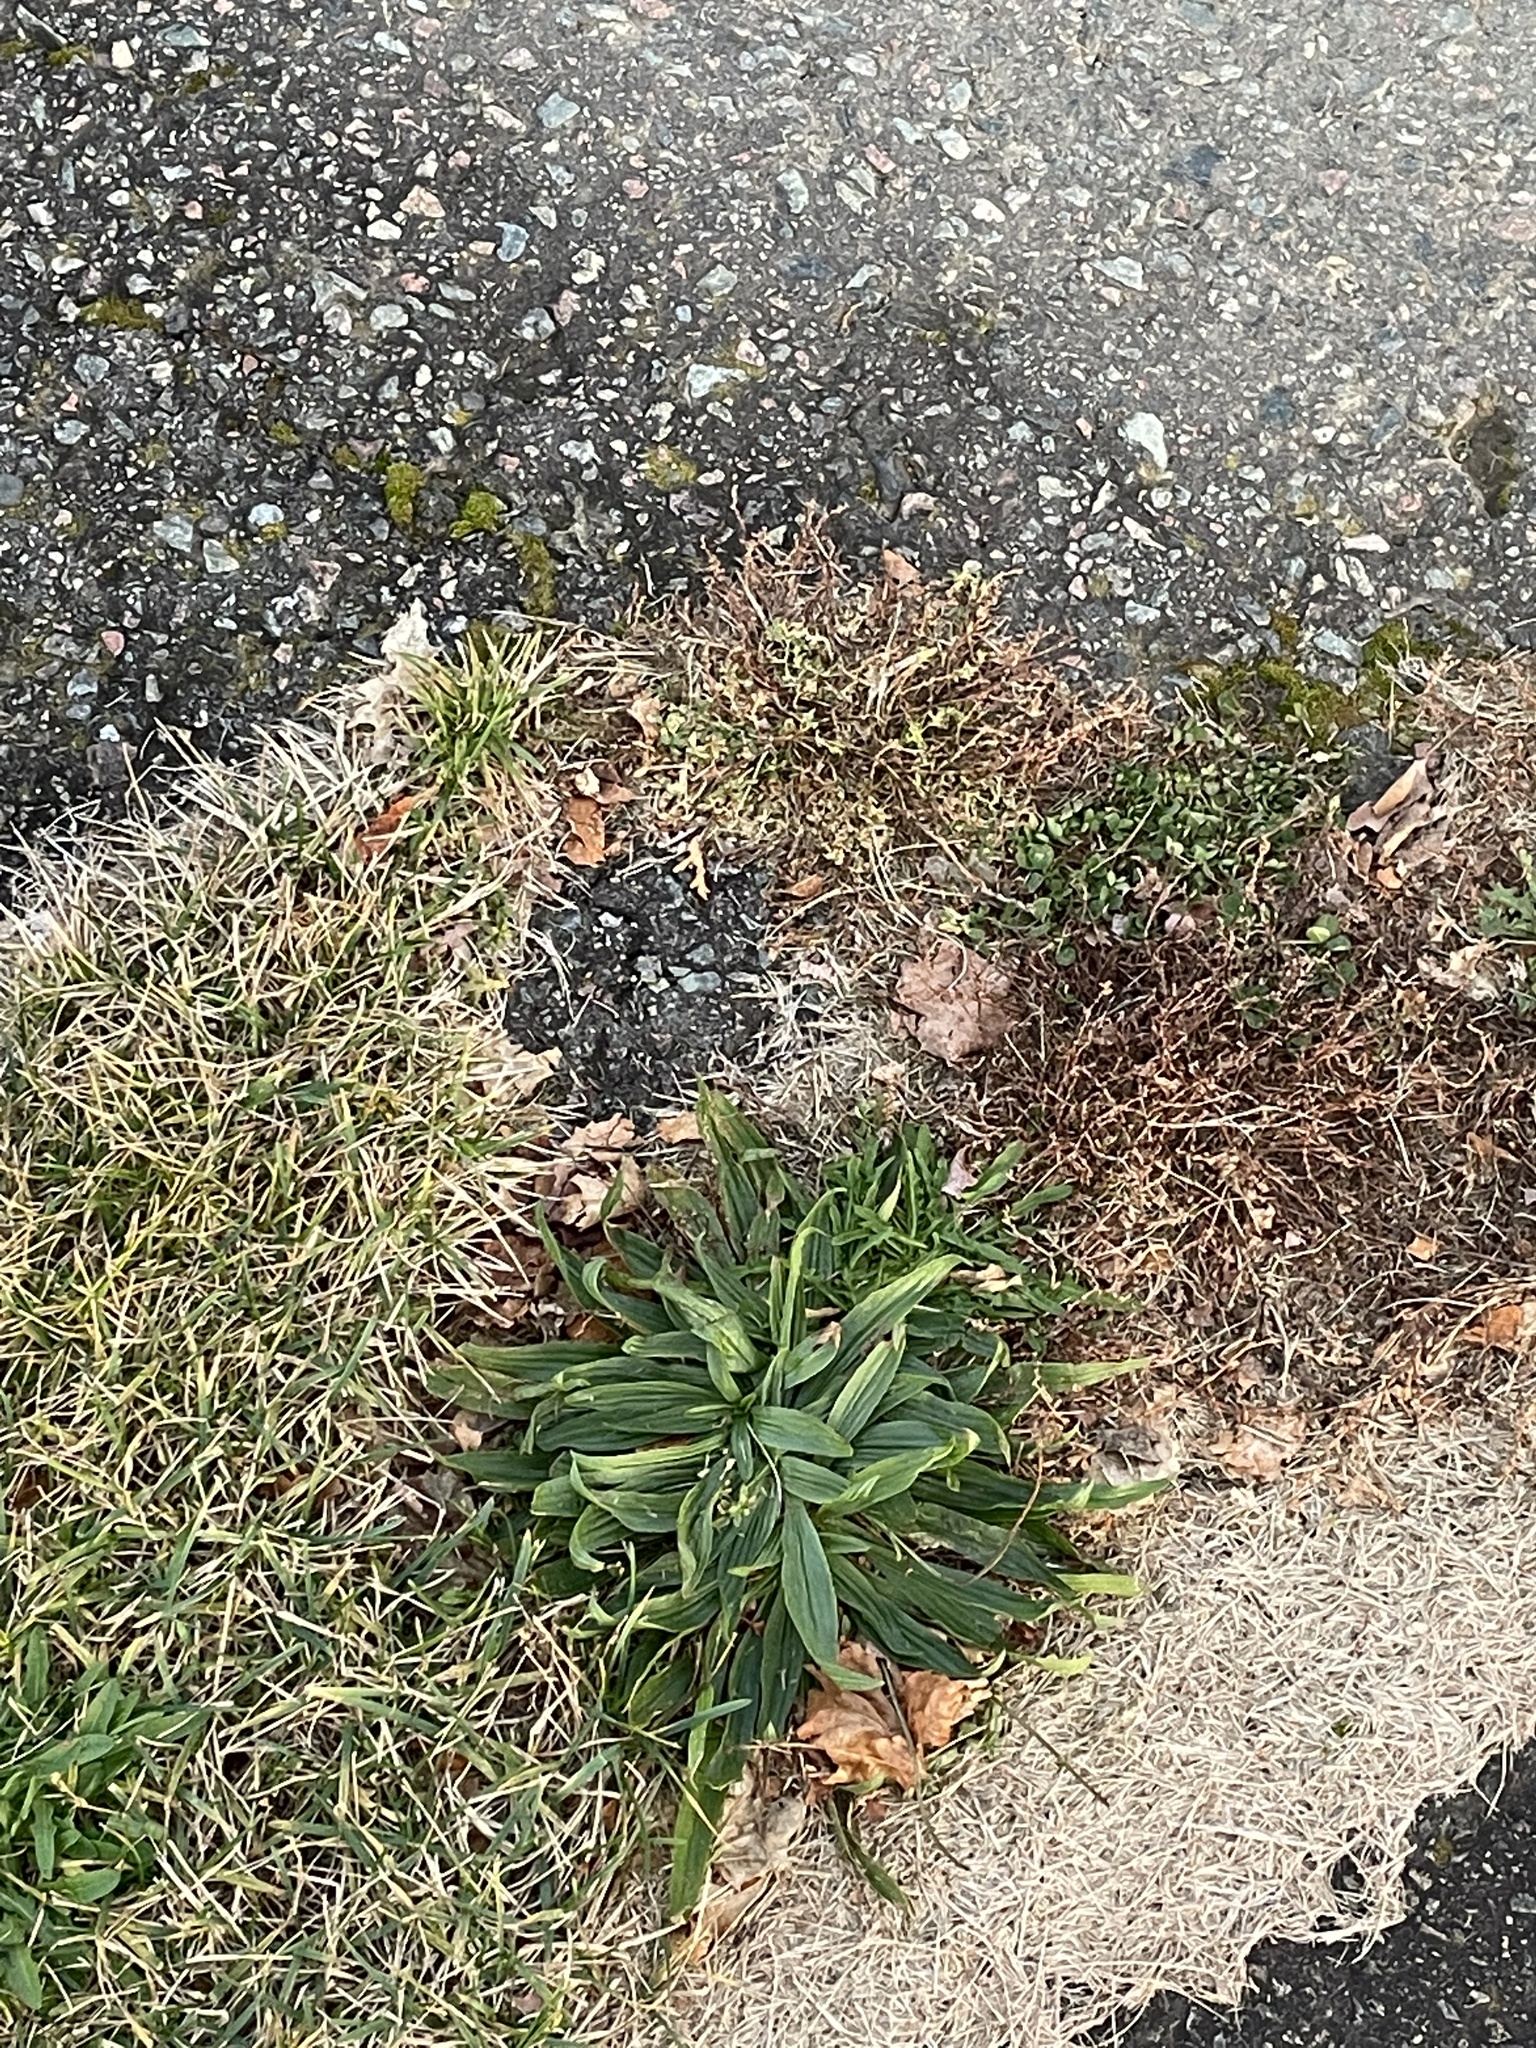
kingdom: Plantae
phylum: Tracheophyta
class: Magnoliopsida
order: Lamiales
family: Plantaginaceae
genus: Plantago
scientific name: Plantago lanceolata
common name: Ribwort plantain
